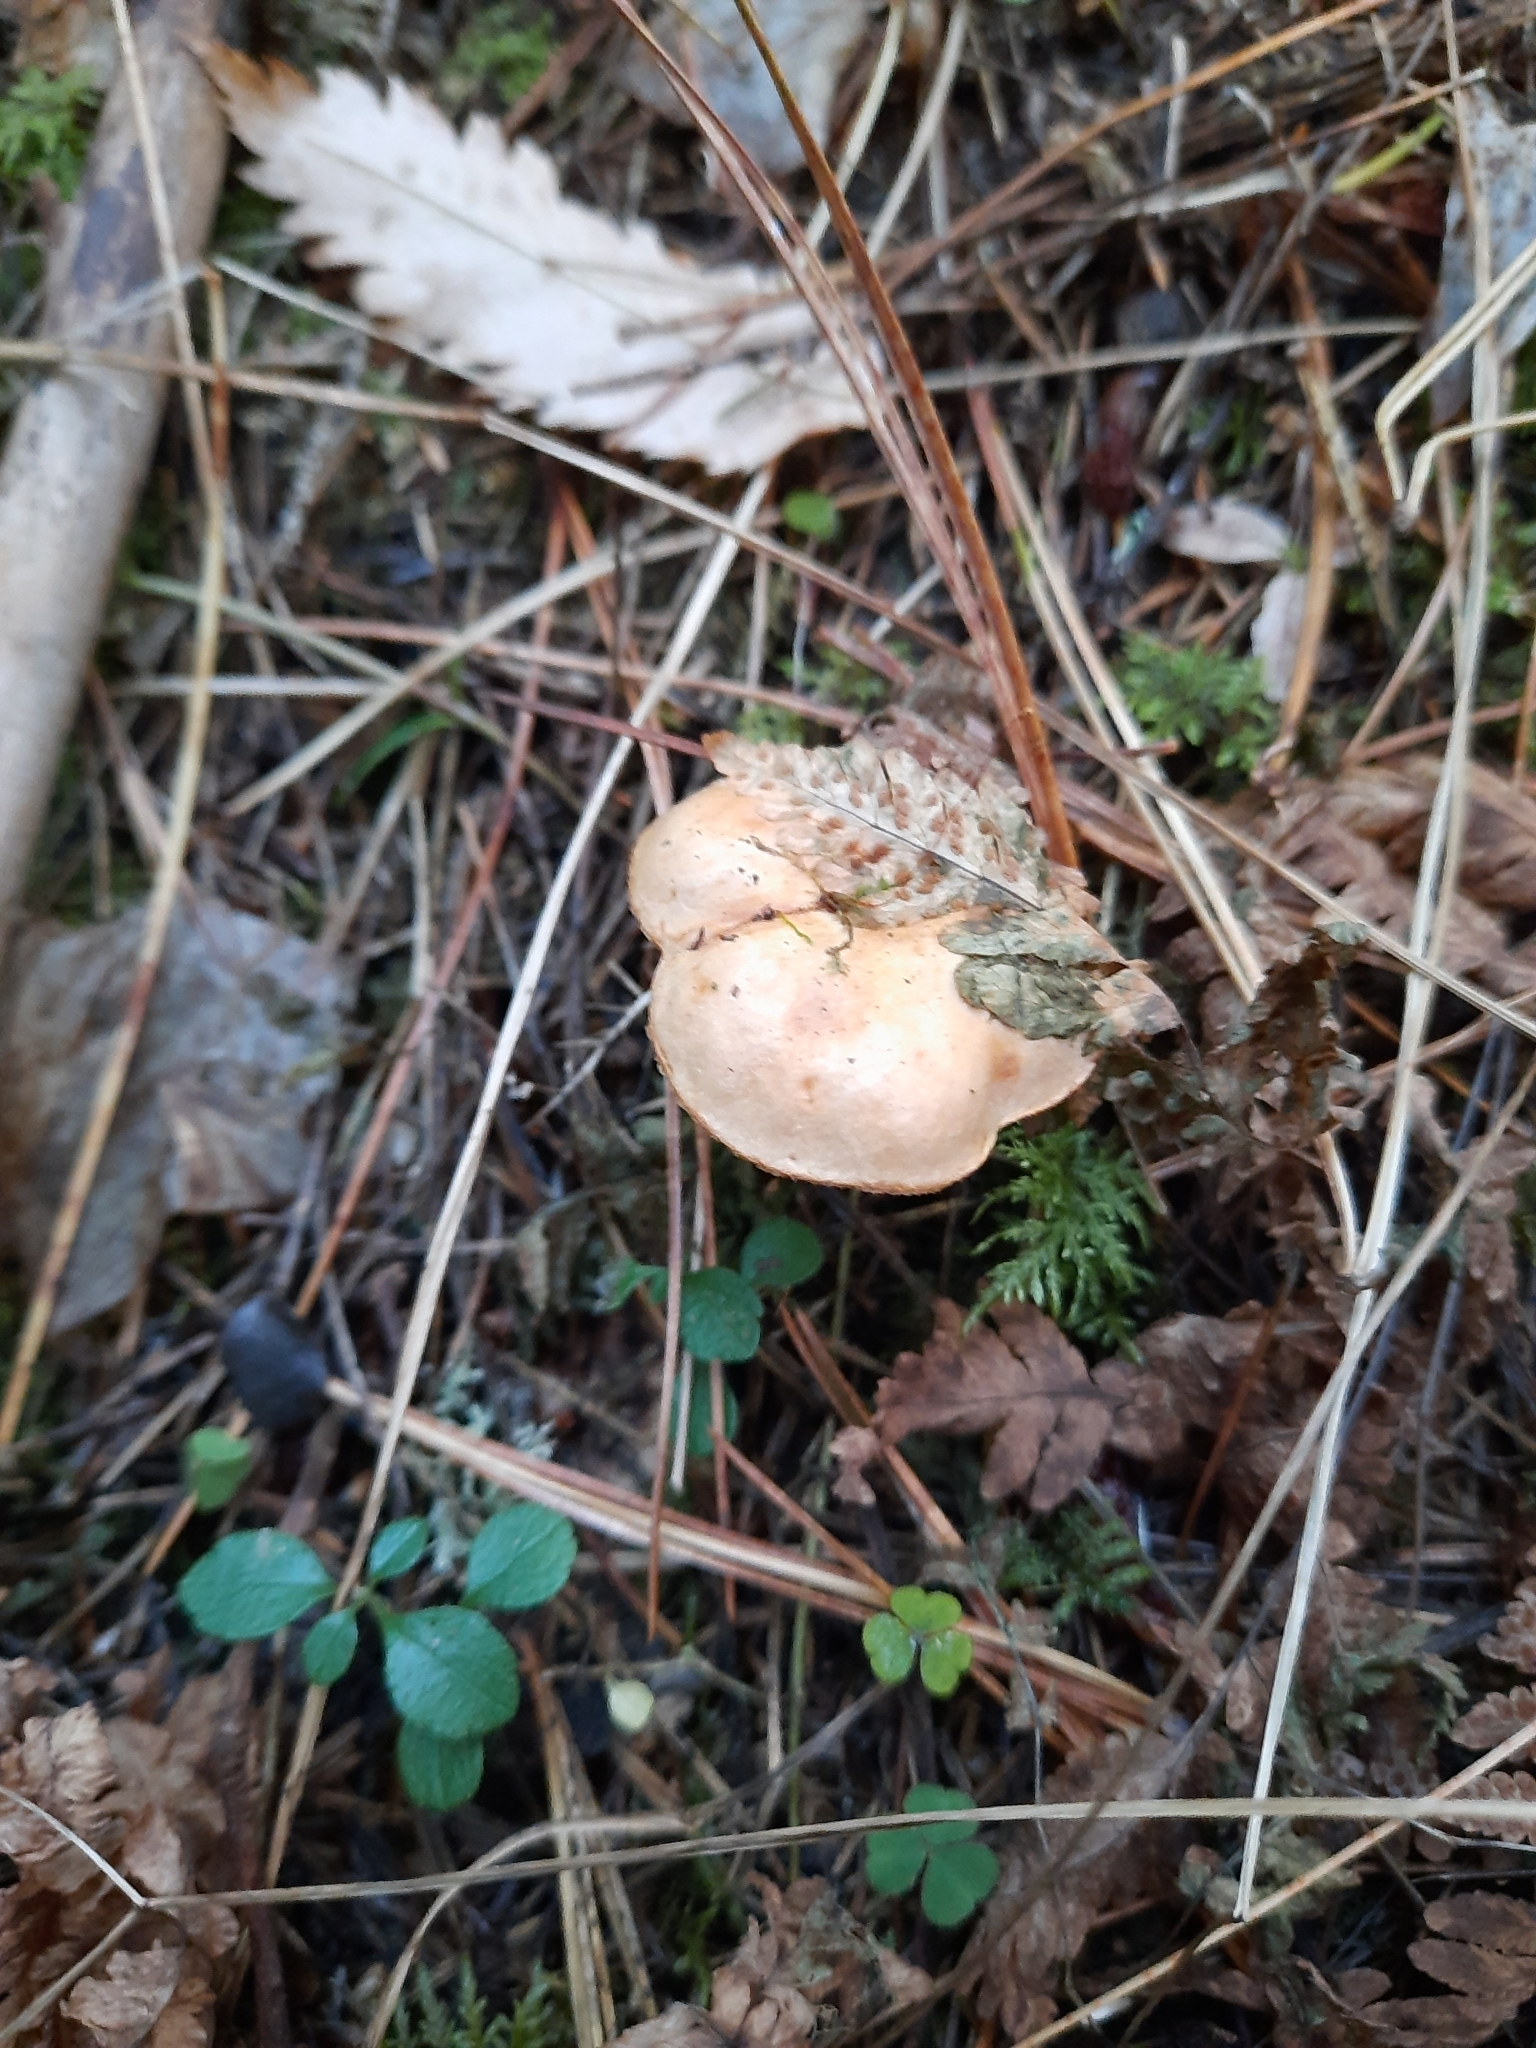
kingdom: Fungi
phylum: Basidiomycota
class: Agaricomycetes
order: Boletales
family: Boletaceae
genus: Chalciporus
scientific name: Chalciporus piperatus
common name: Peppery bolete
